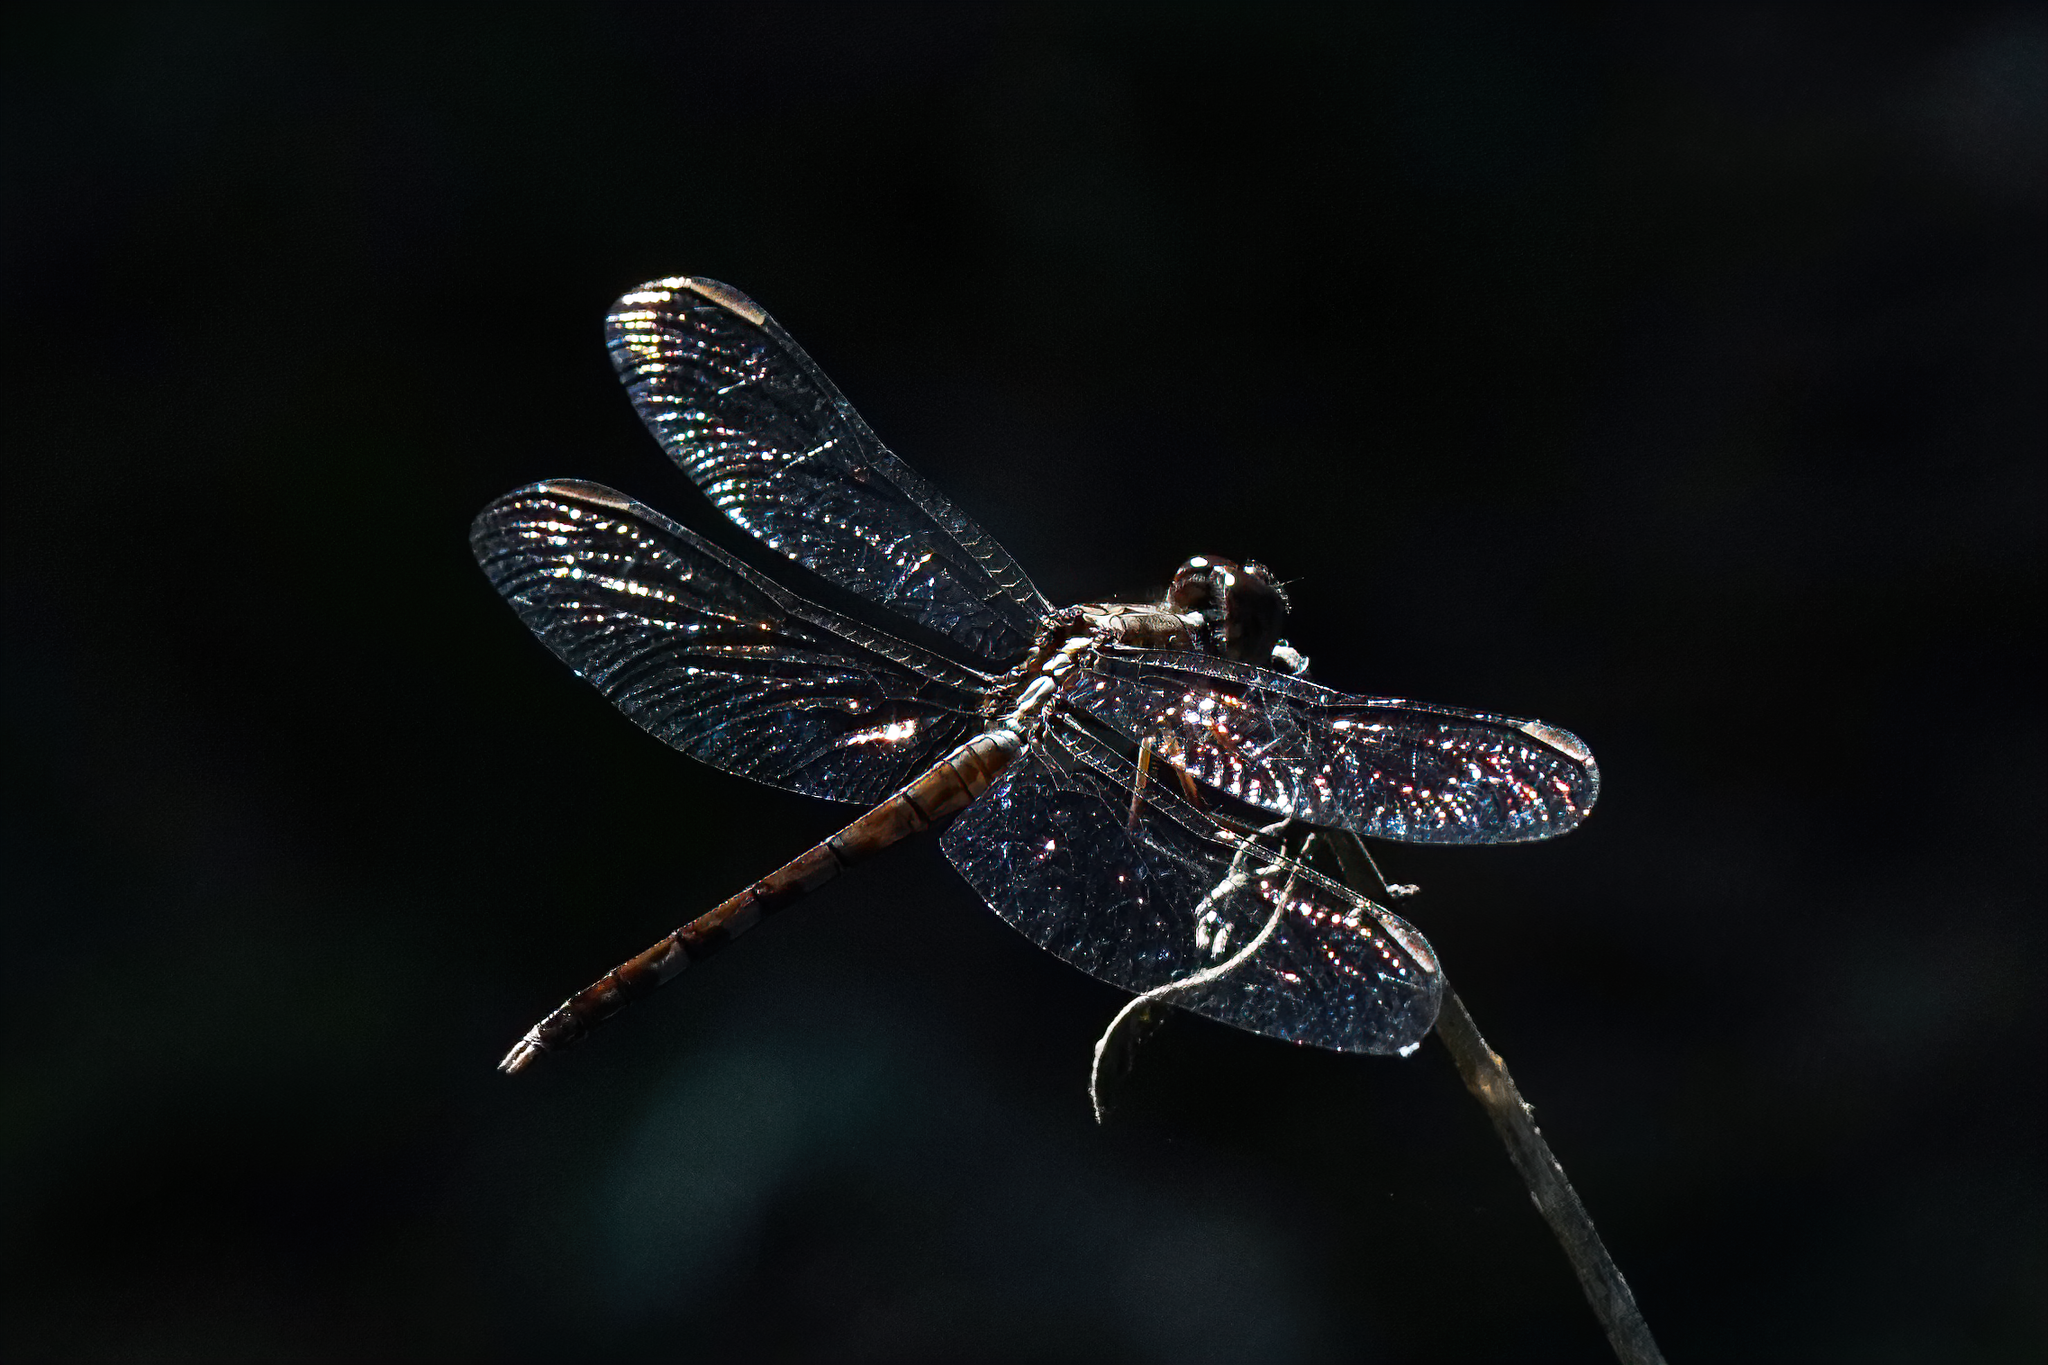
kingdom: Animalia
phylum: Arthropoda
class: Insecta
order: Odonata
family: Libellulidae
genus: Erythrodiplax
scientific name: Erythrodiplax umbrata
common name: Band-winged dragonlet
